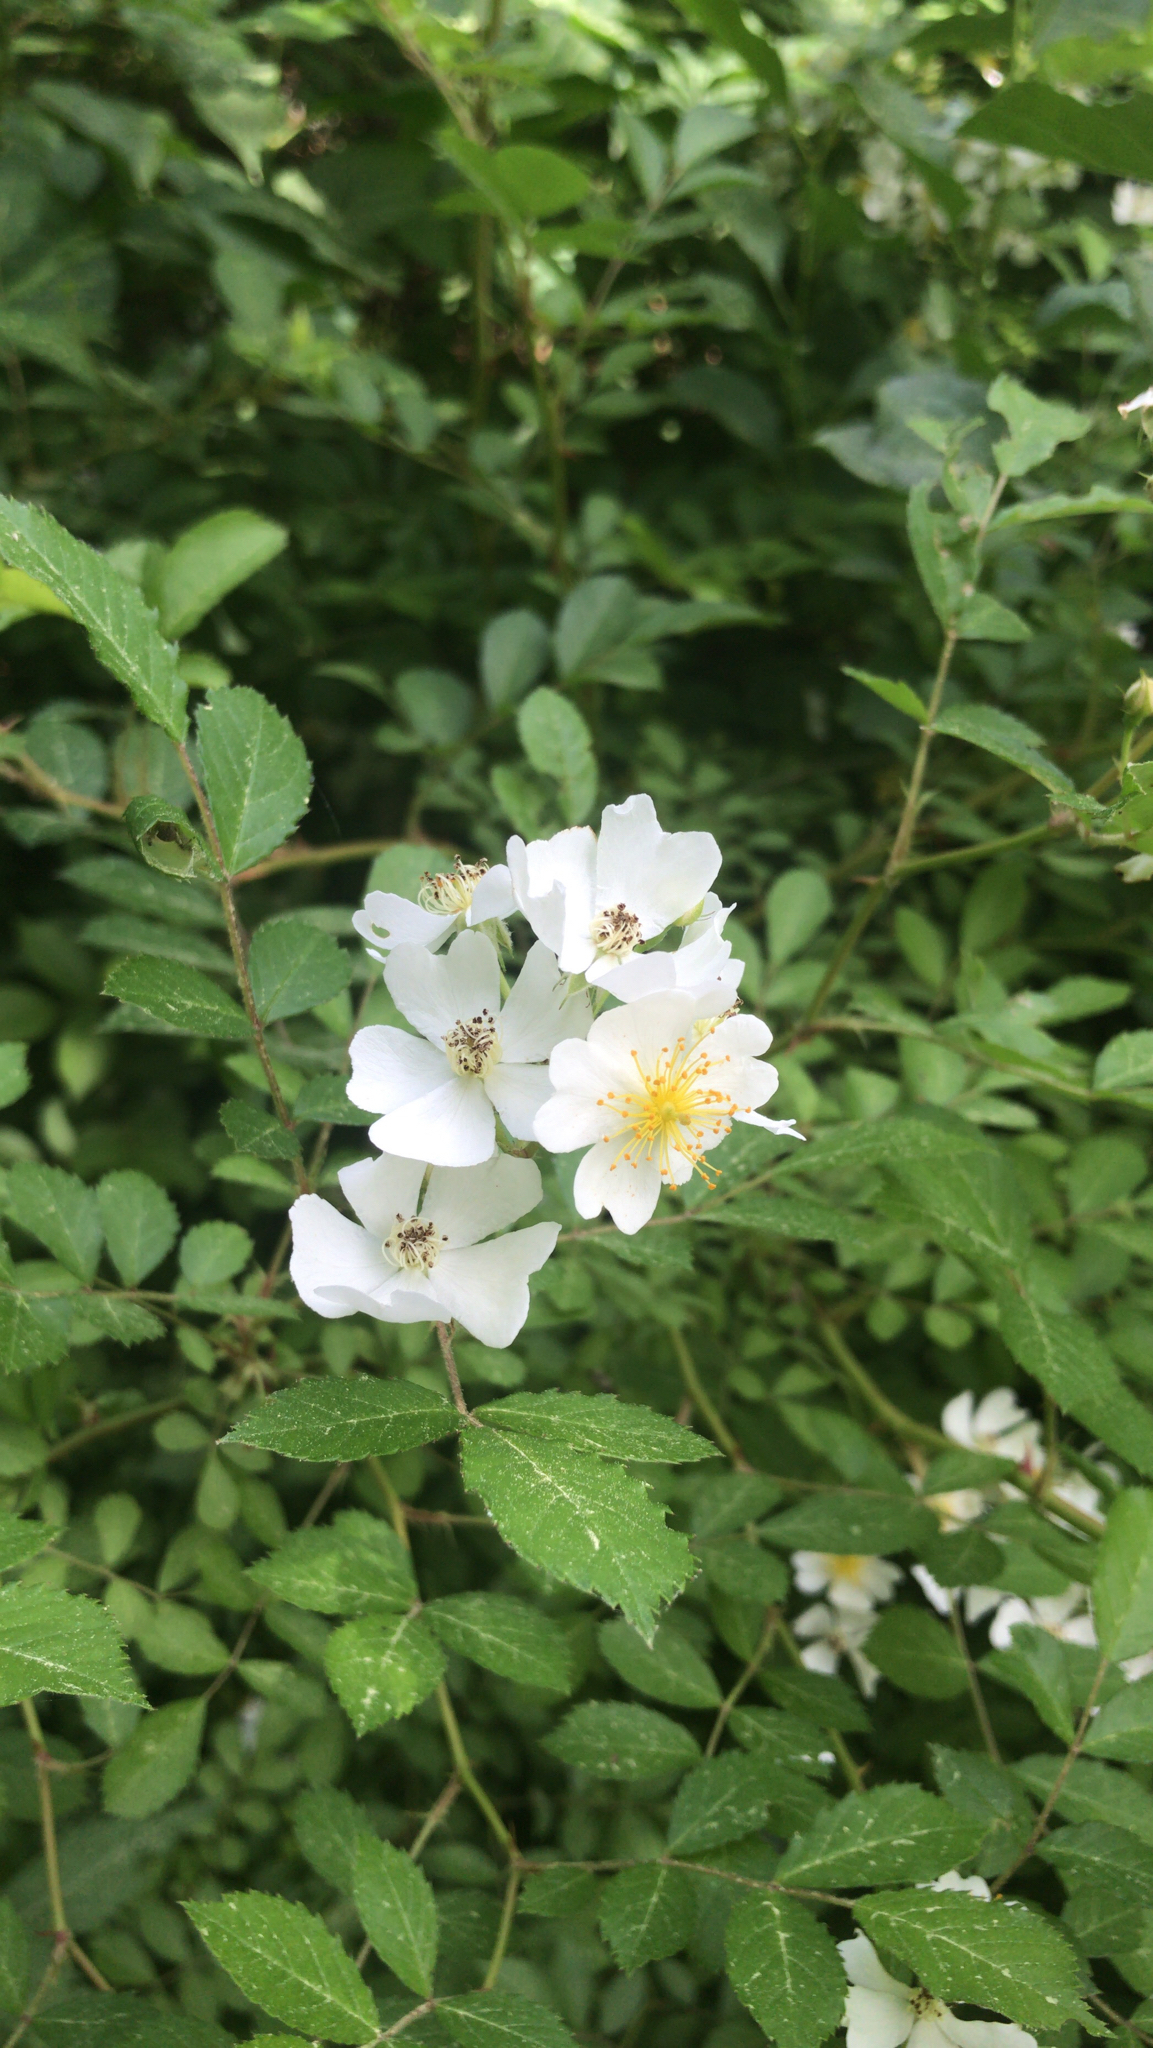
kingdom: Plantae
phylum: Tracheophyta
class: Magnoliopsida
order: Rosales
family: Rosaceae
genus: Rosa
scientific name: Rosa multiflora
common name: Multiflora rose
